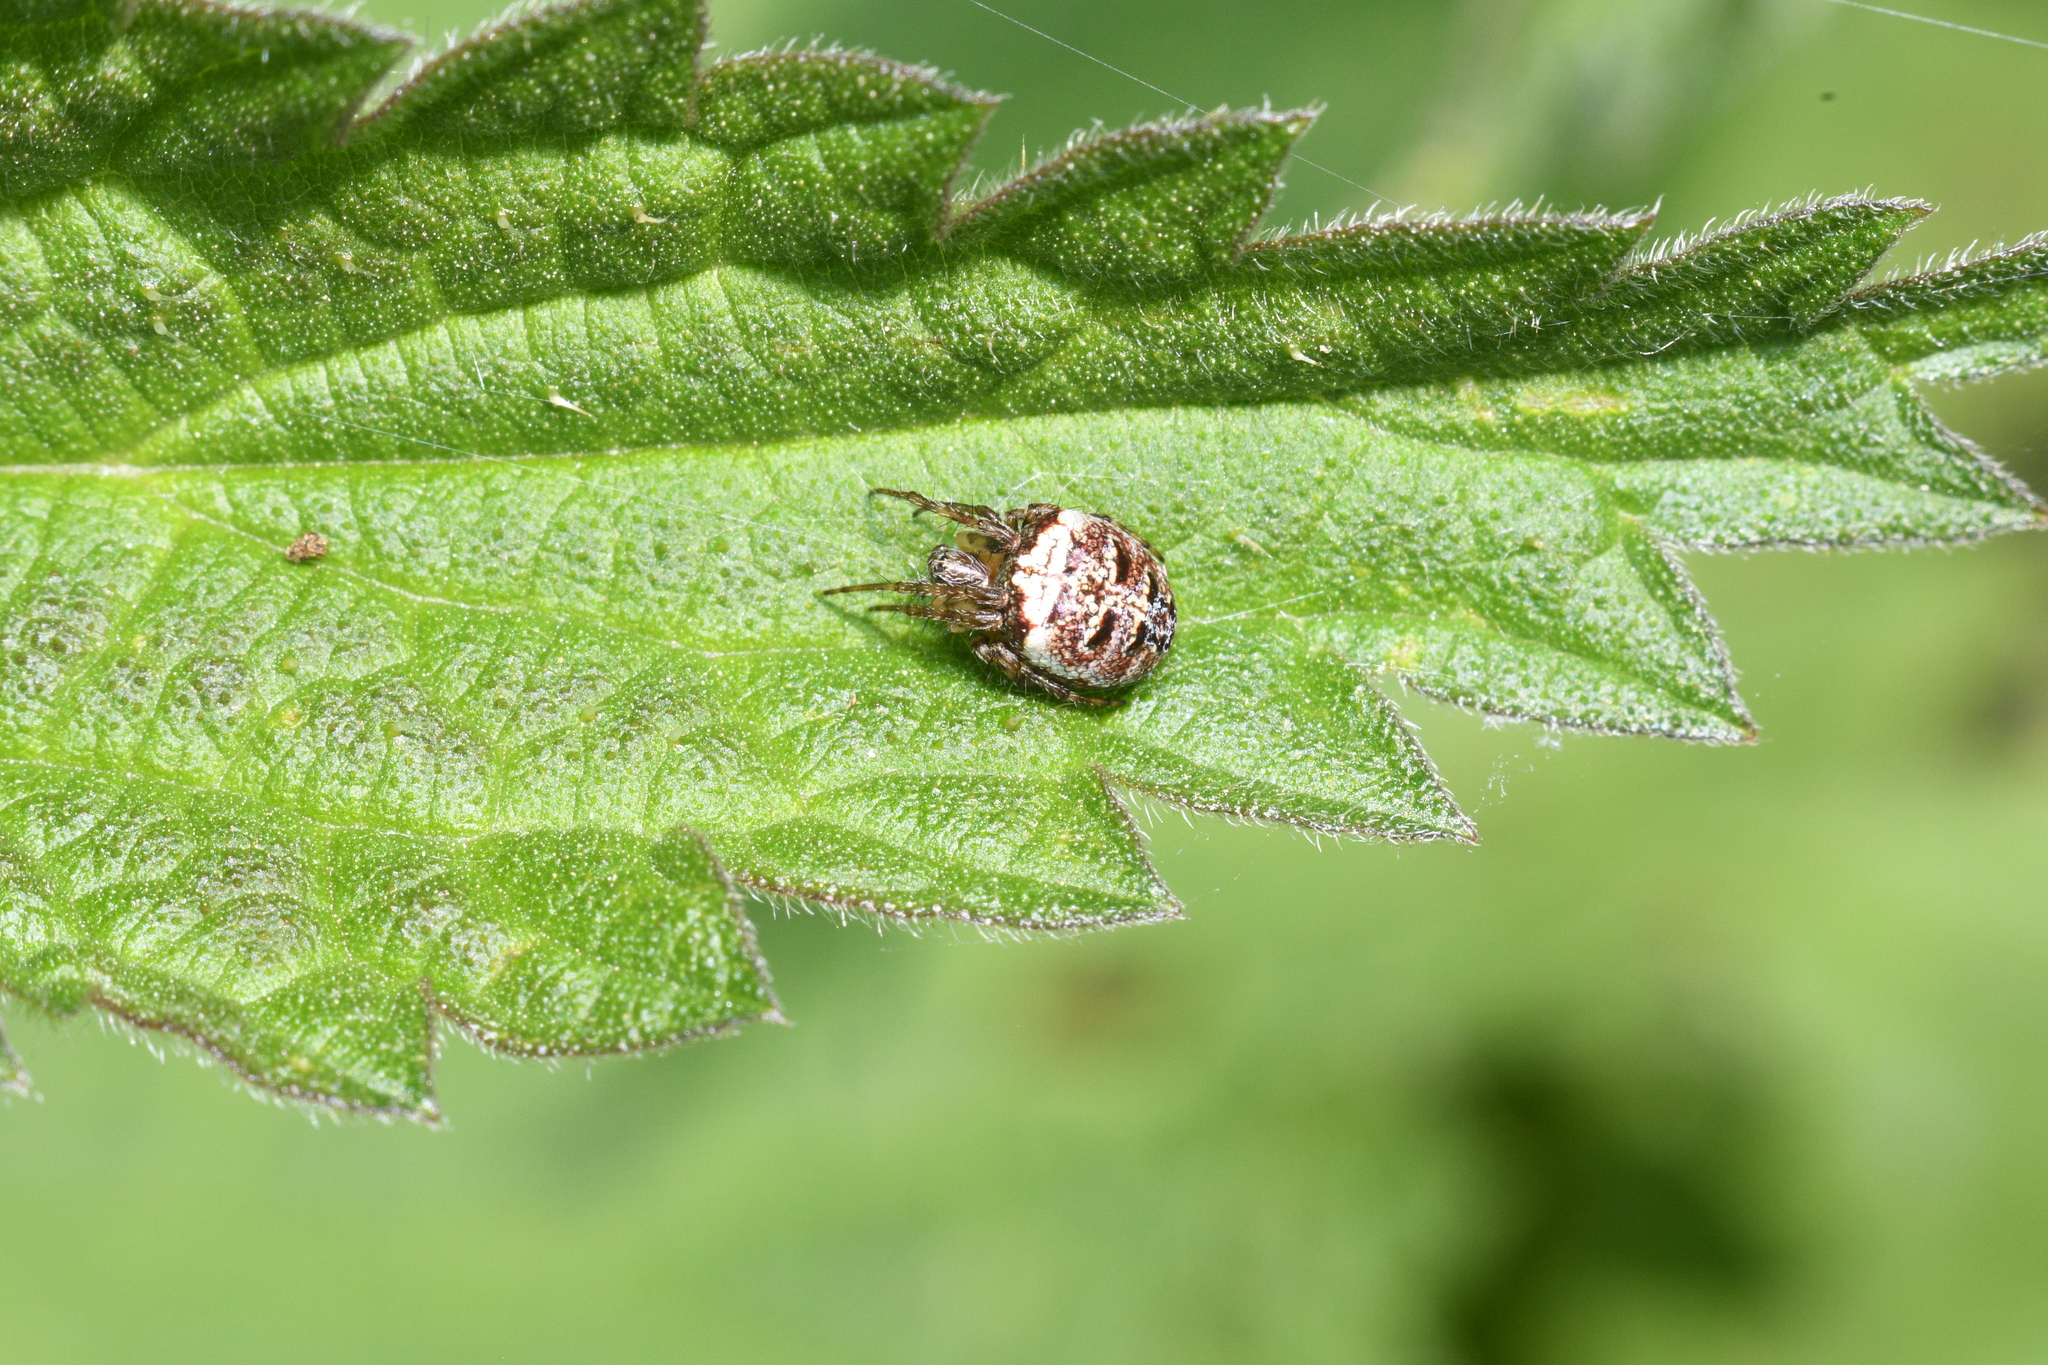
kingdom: Animalia
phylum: Arthropoda
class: Arachnida
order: Araneae
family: Araneidae
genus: Zilla
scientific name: Zilla diodia
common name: Zilla diodia
